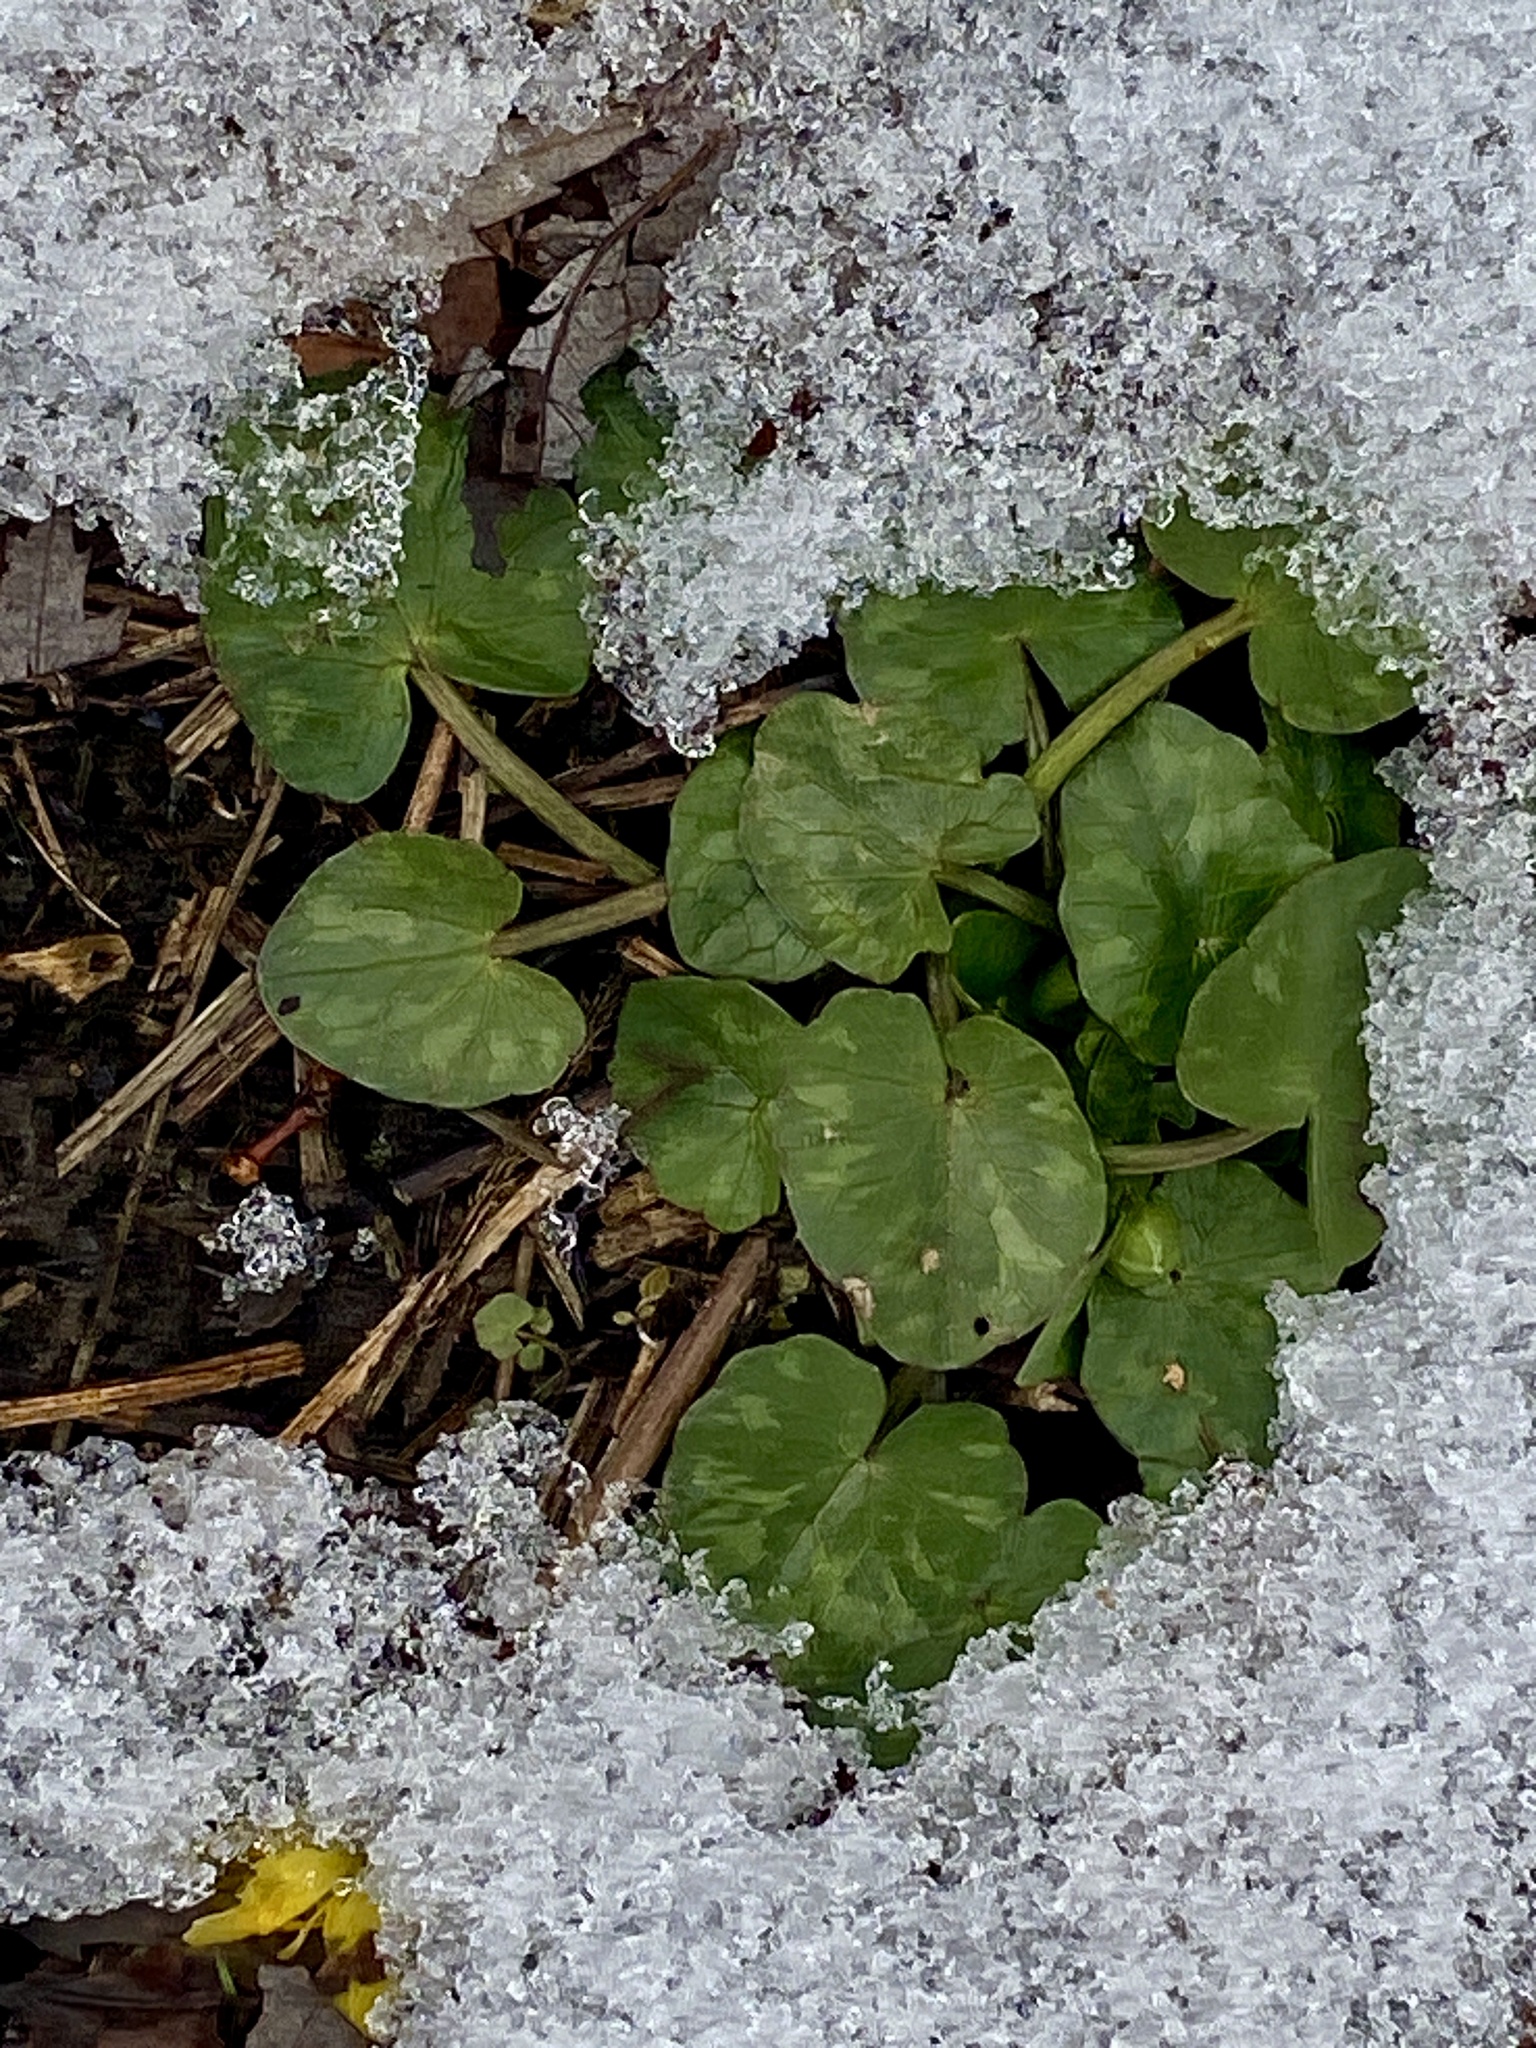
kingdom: Plantae
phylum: Tracheophyta
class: Magnoliopsida
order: Ranunculales
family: Ranunculaceae
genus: Ficaria
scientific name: Ficaria verna
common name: Lesser celandine
